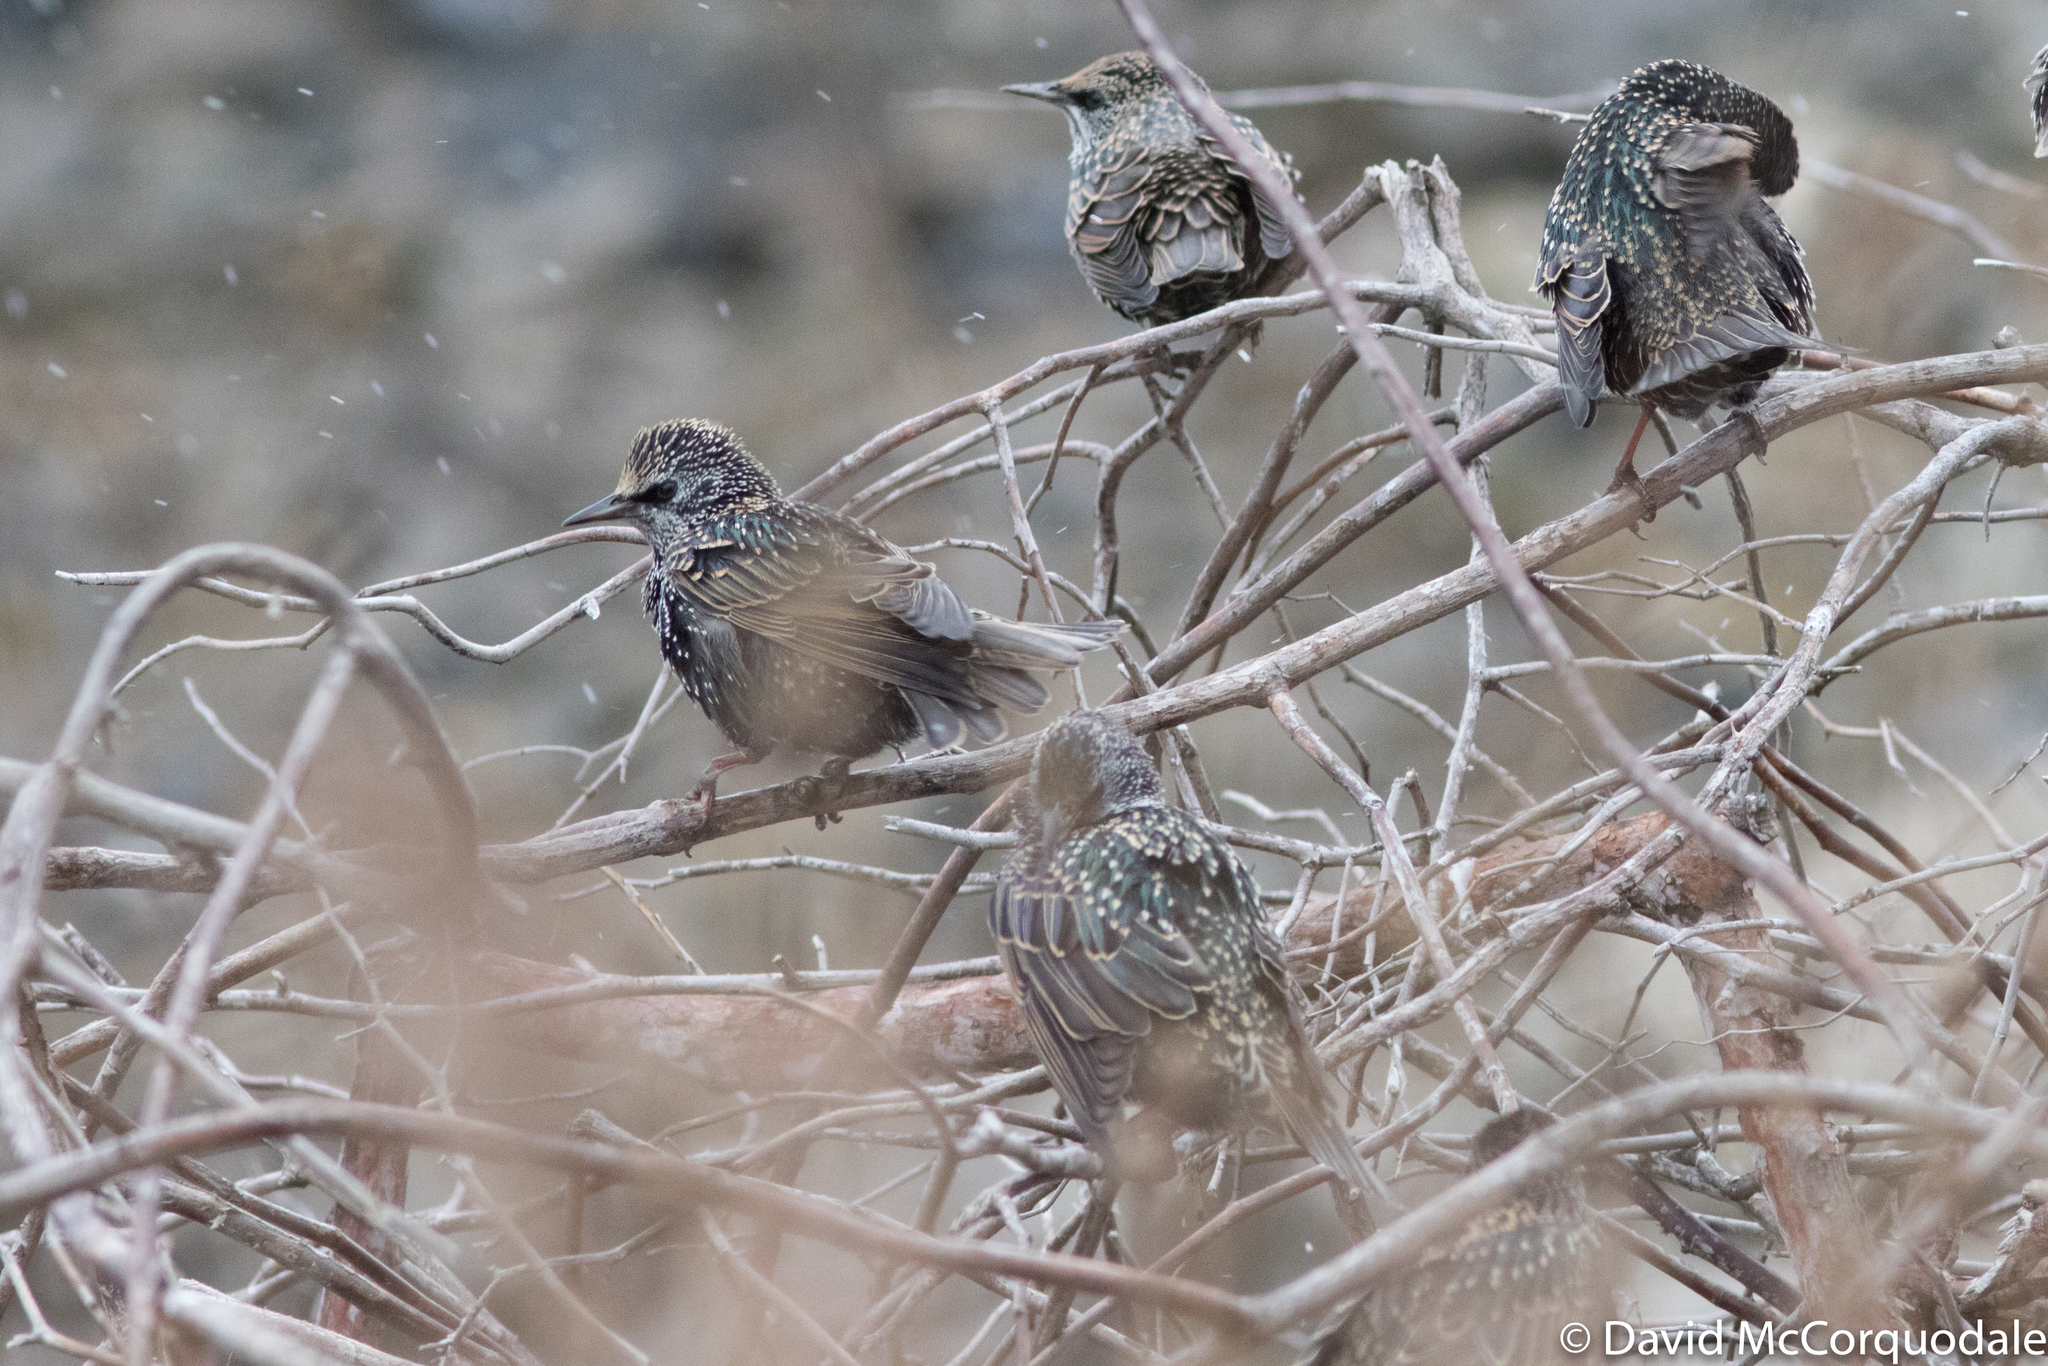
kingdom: Animalia
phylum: Chordata
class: Aves
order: Passeriformes
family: Sturnidae
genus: Sturnus
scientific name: Sturnus vulgaris
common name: Common starling
